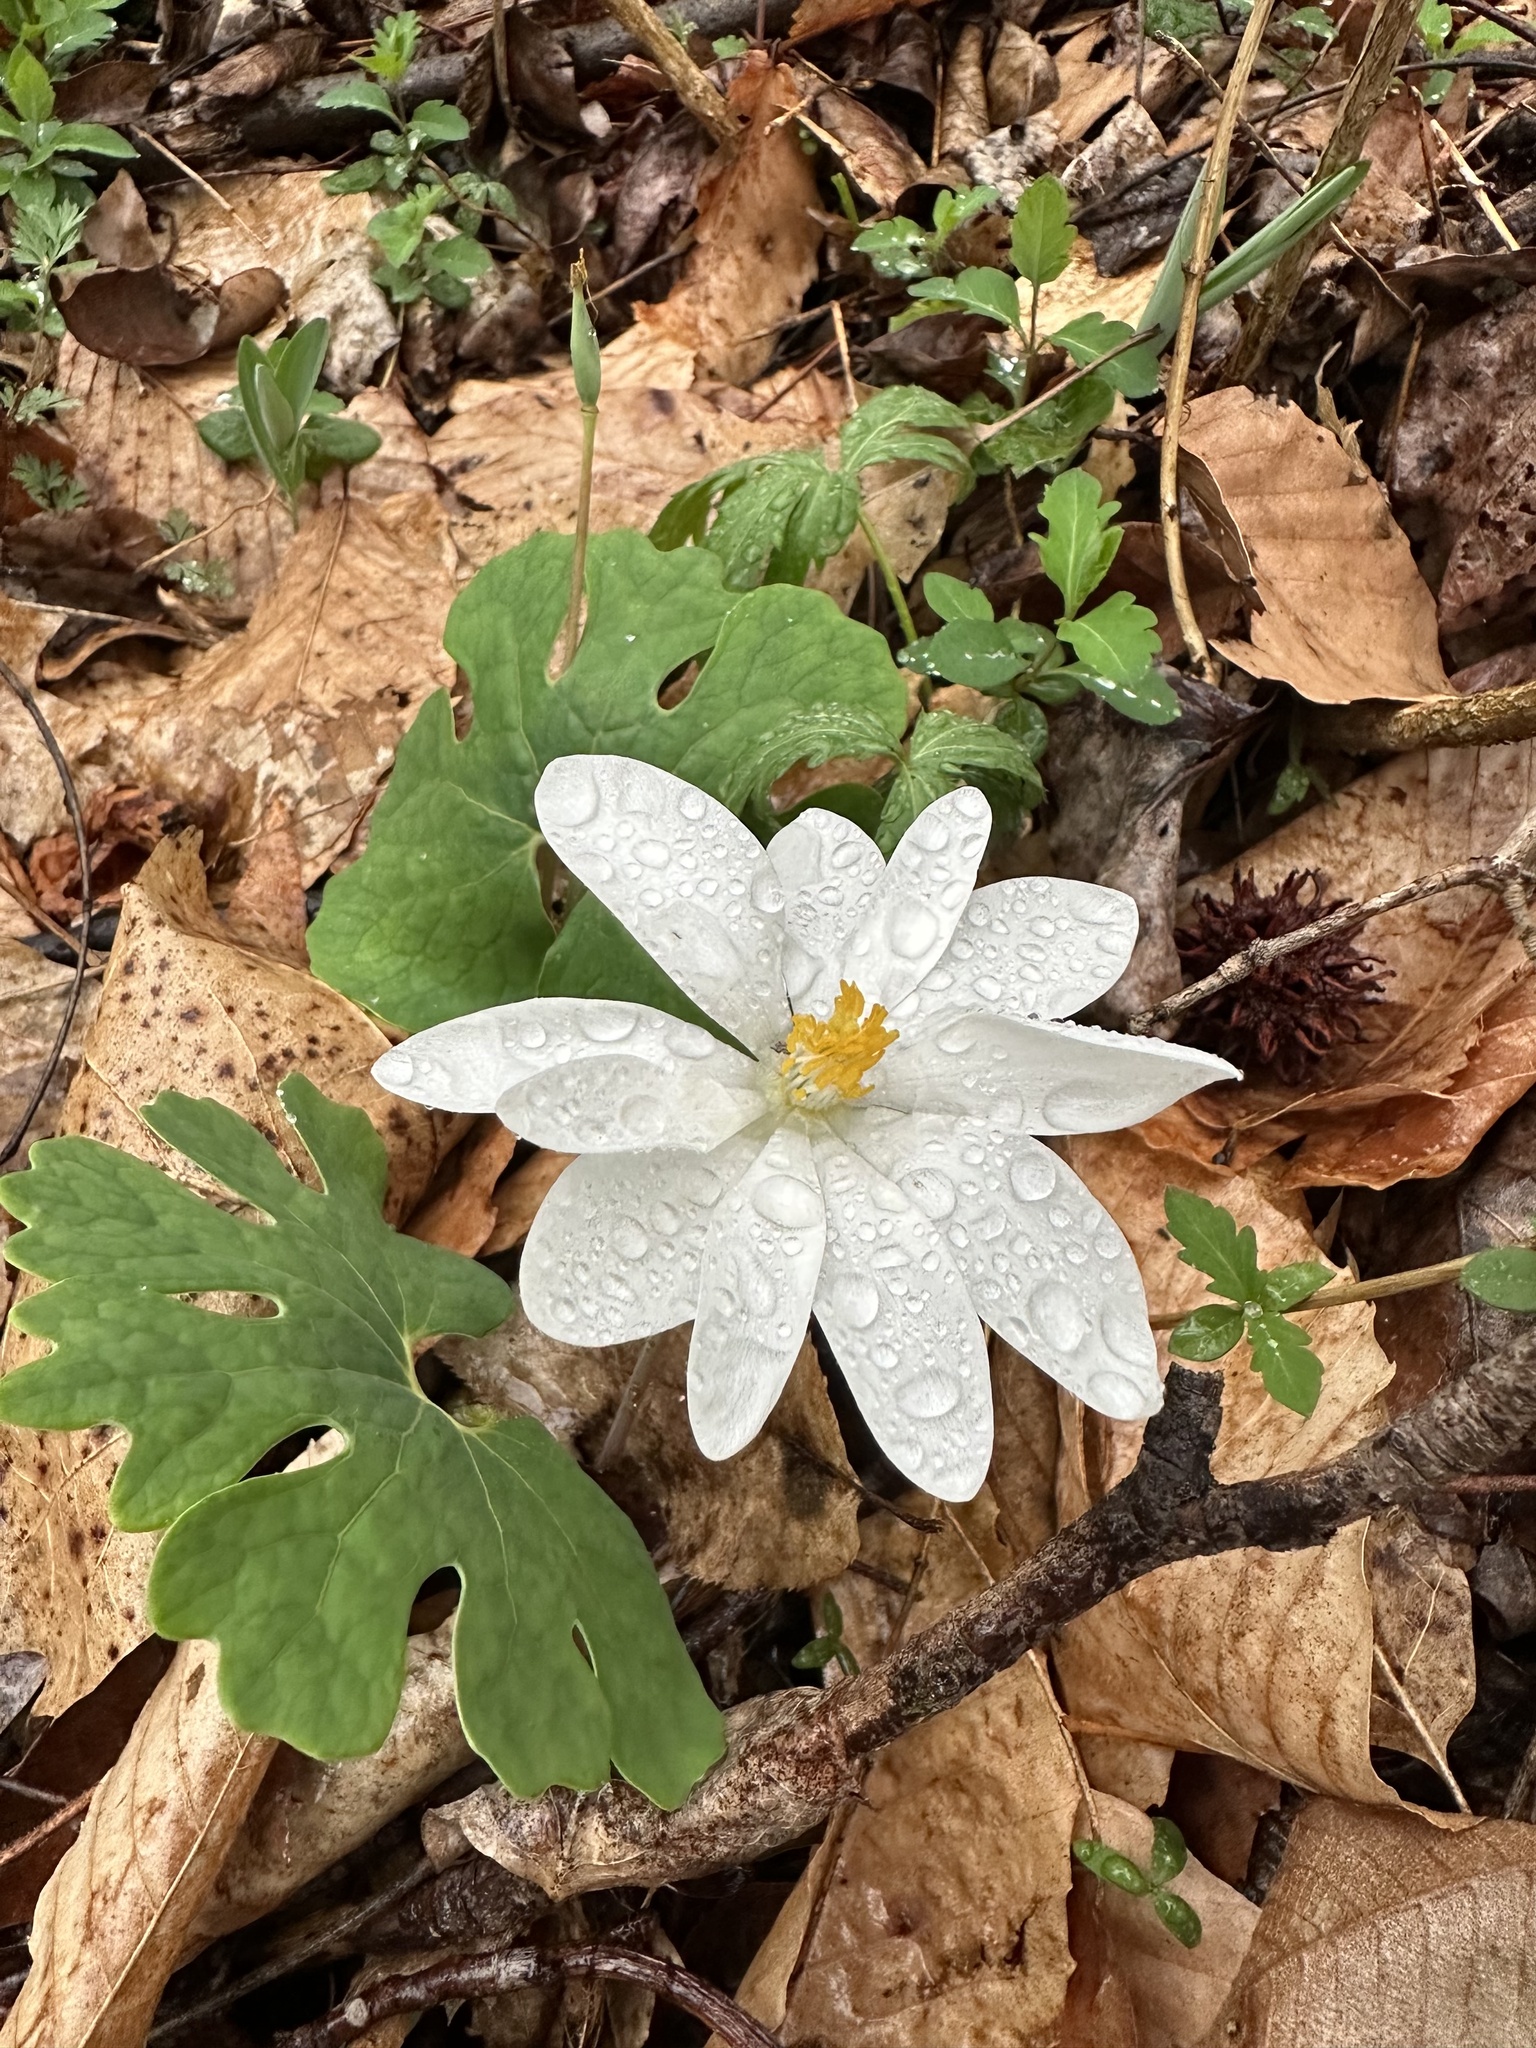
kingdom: Plantae
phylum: Tracheophyta
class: Magnoliopsida
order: Ranunculales
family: Papaveraceae
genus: Sanguinaria
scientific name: Sanguinaria canadensis
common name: Bloodroot
